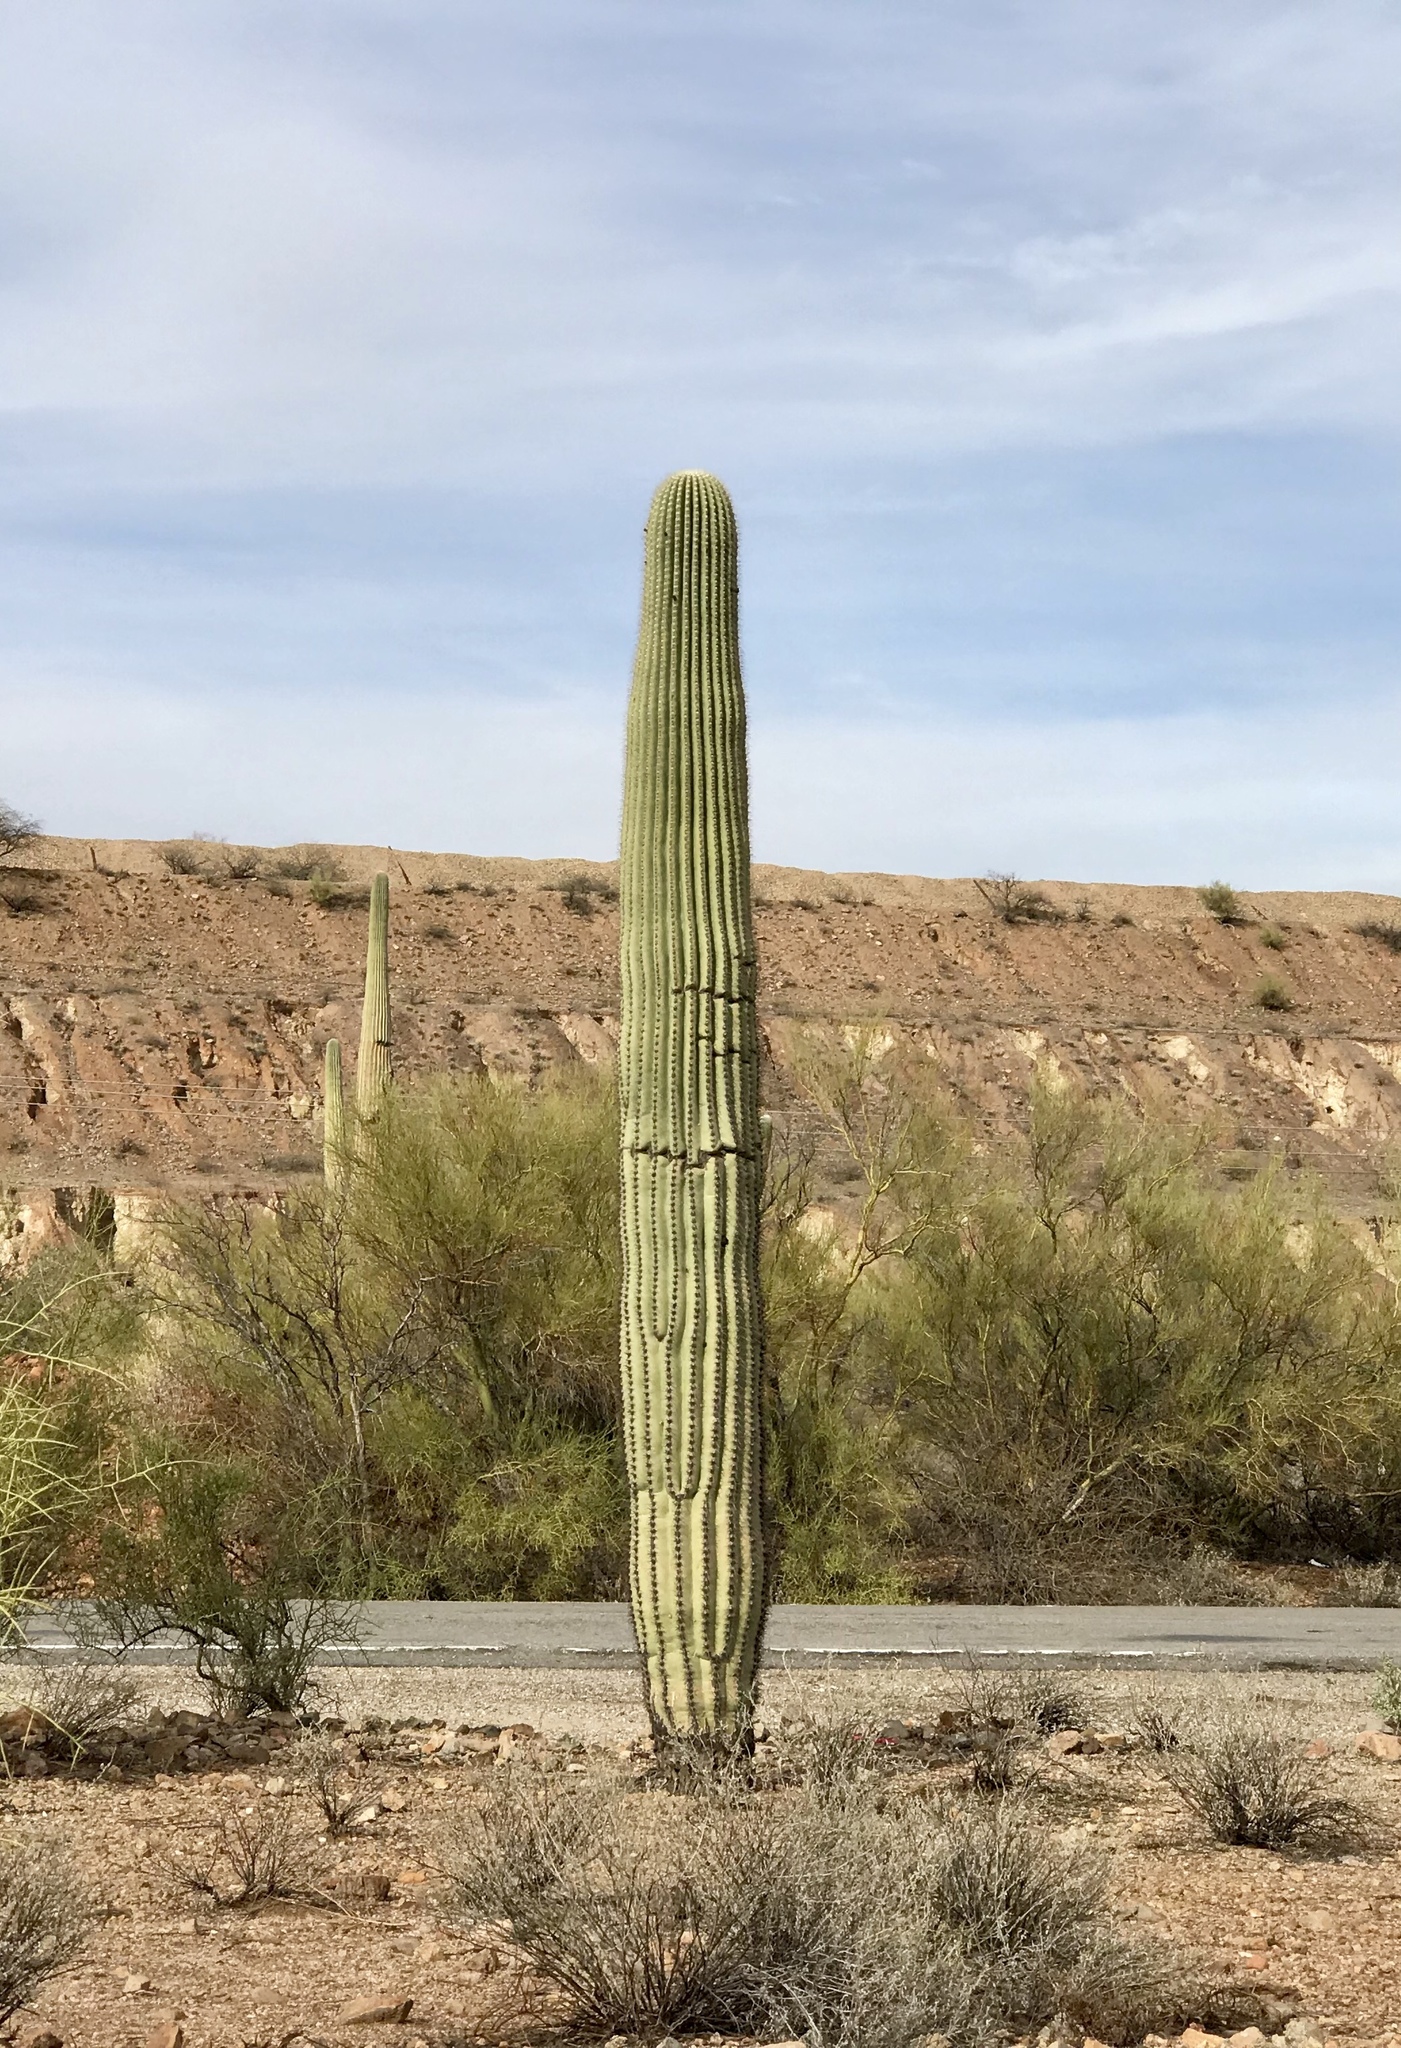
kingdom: Plantae
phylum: Tracheophyta
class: Magnoliopsida
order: Caryophyllales
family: Cactaceae
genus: Carnegiea
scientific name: Carnegiea gigantea
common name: Saguaro
